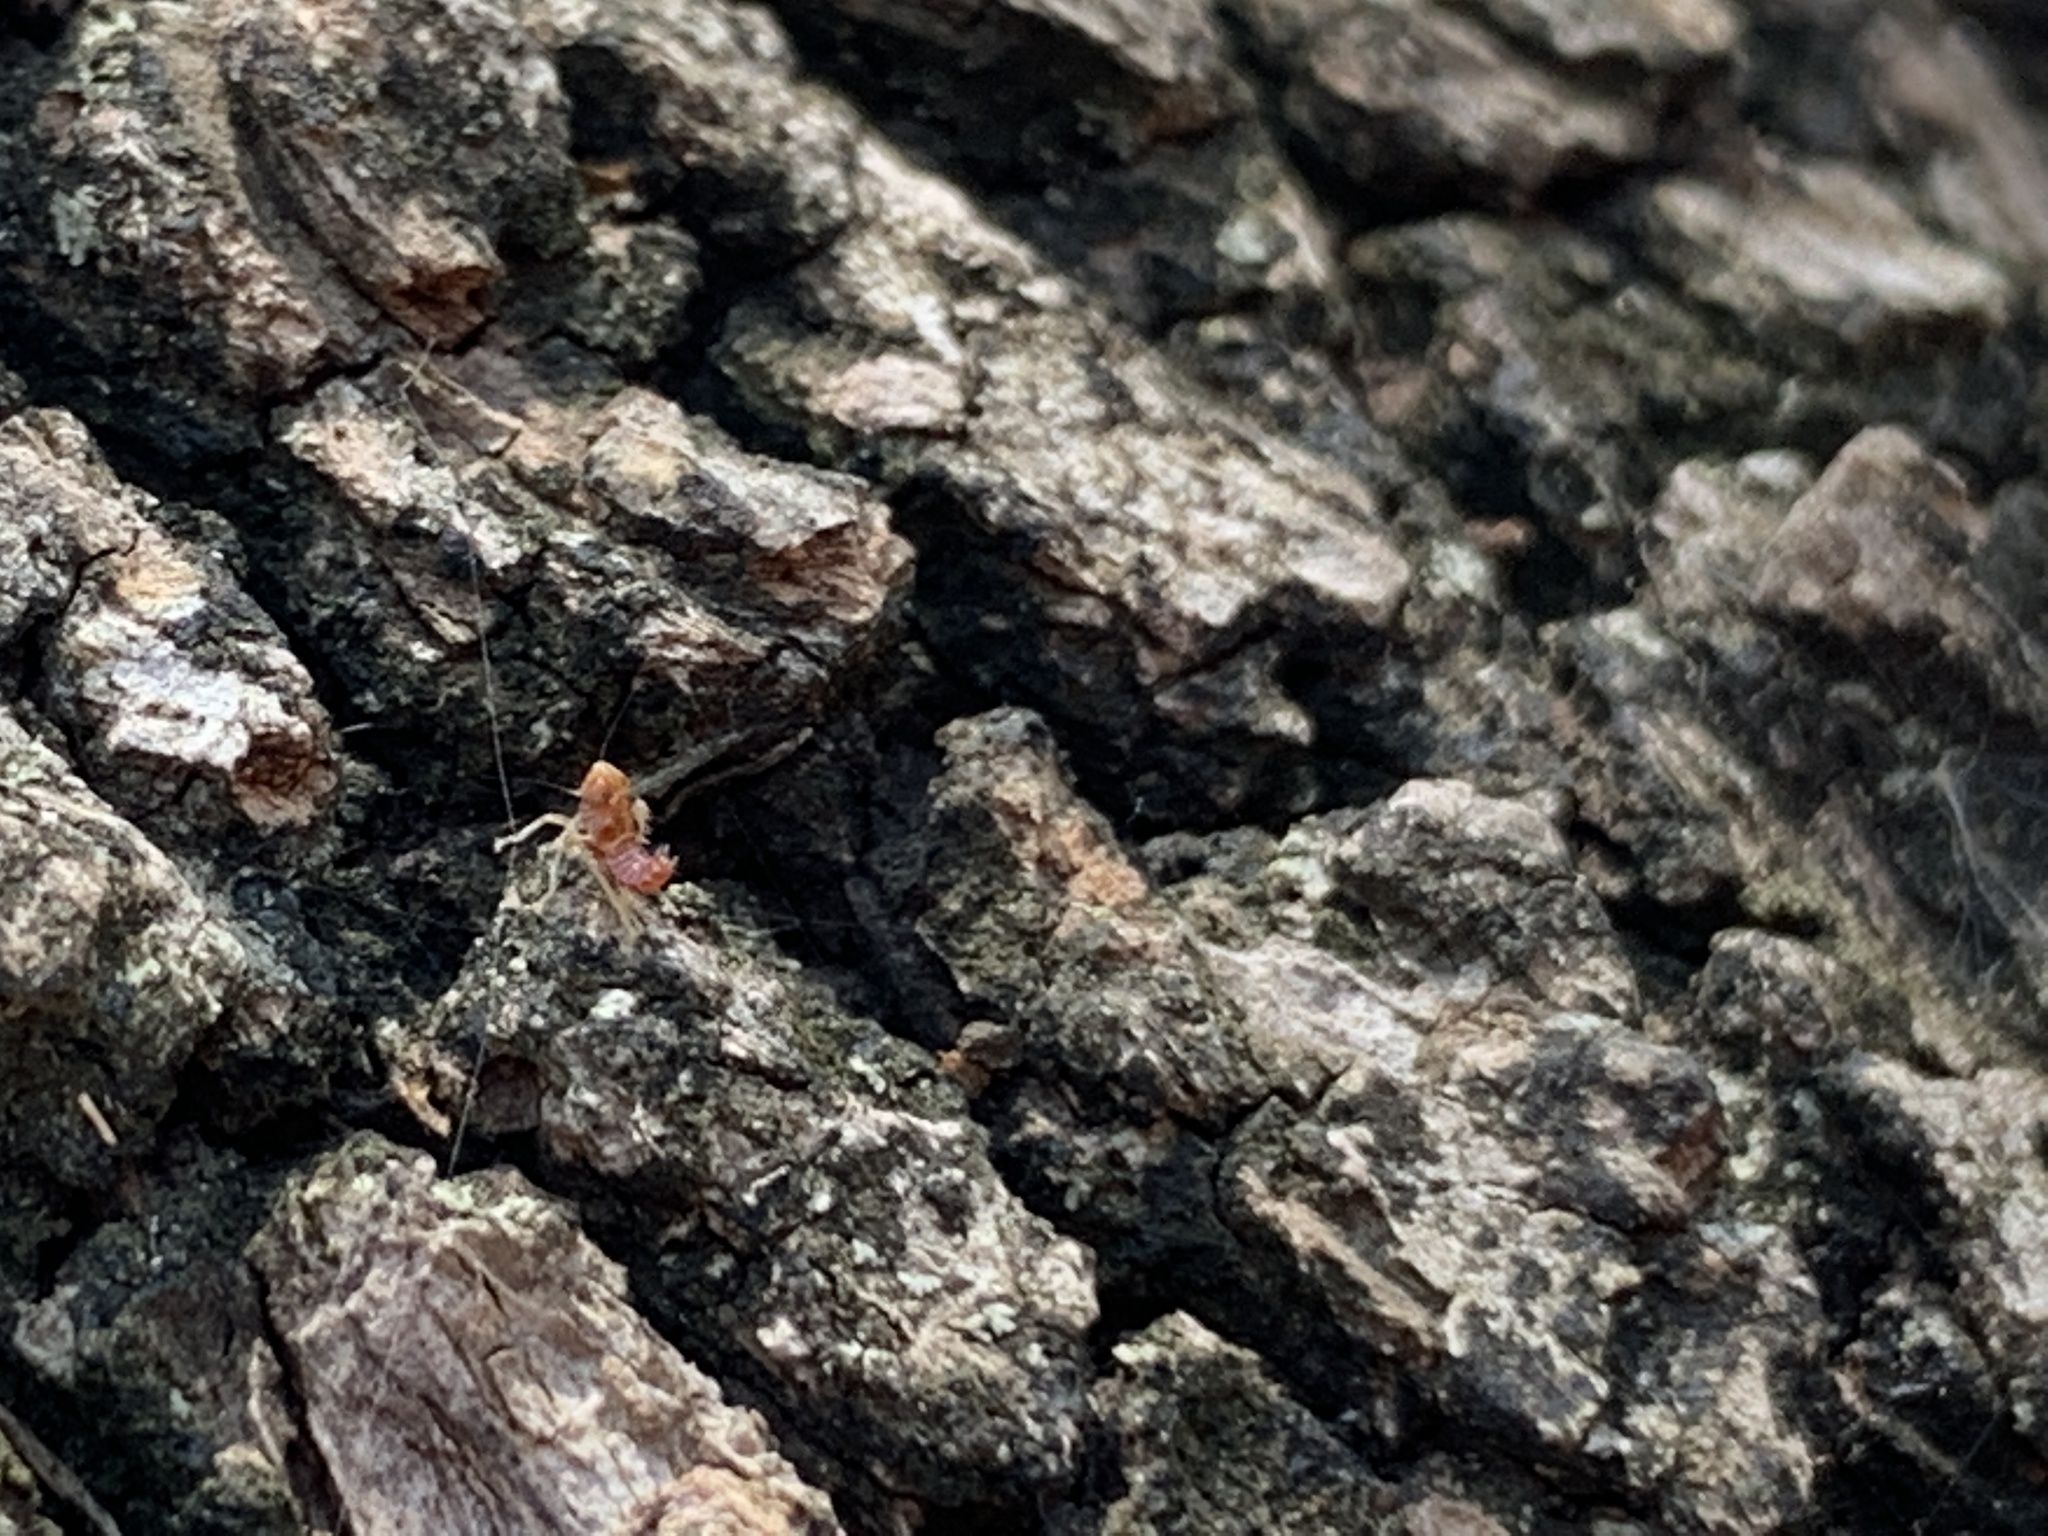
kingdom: Animalia
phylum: Arthropoda
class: Insecta
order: Hemiptera
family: Cicadellidae
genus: Jikradia
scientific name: Jikradia olitoria
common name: Coppery leafhopper
